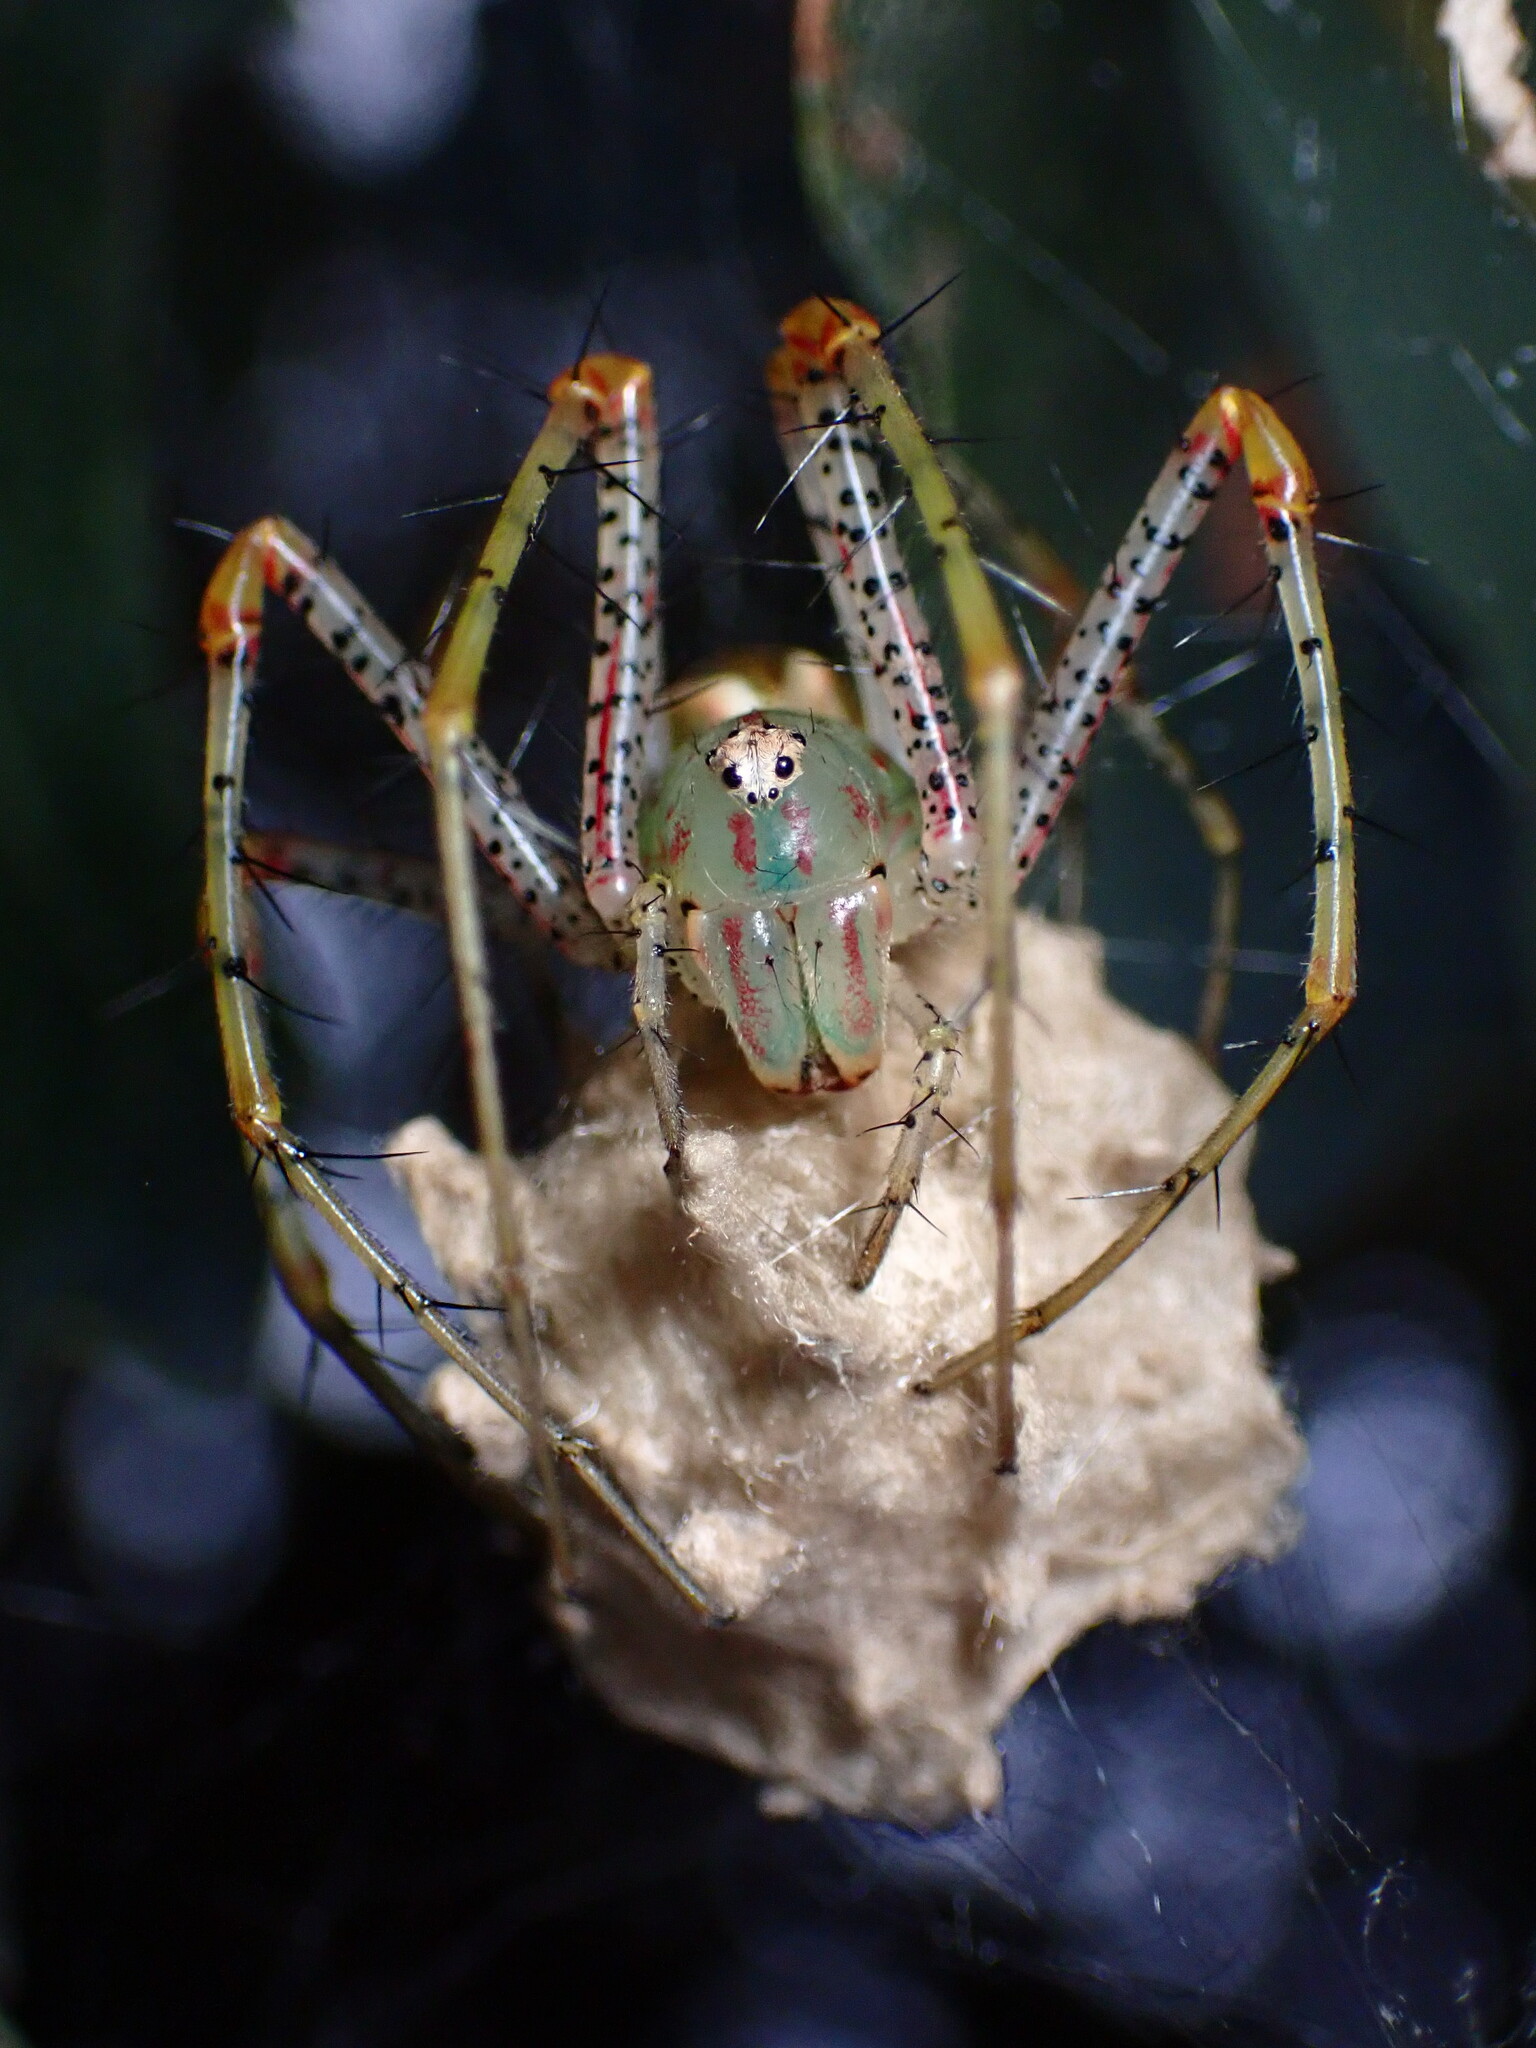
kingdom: Animalia
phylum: Arthropoda
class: Arachnida
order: Araneae
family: Oxyopidae
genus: Peucetia
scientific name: Peucetia viridans
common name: Lynx spiders
